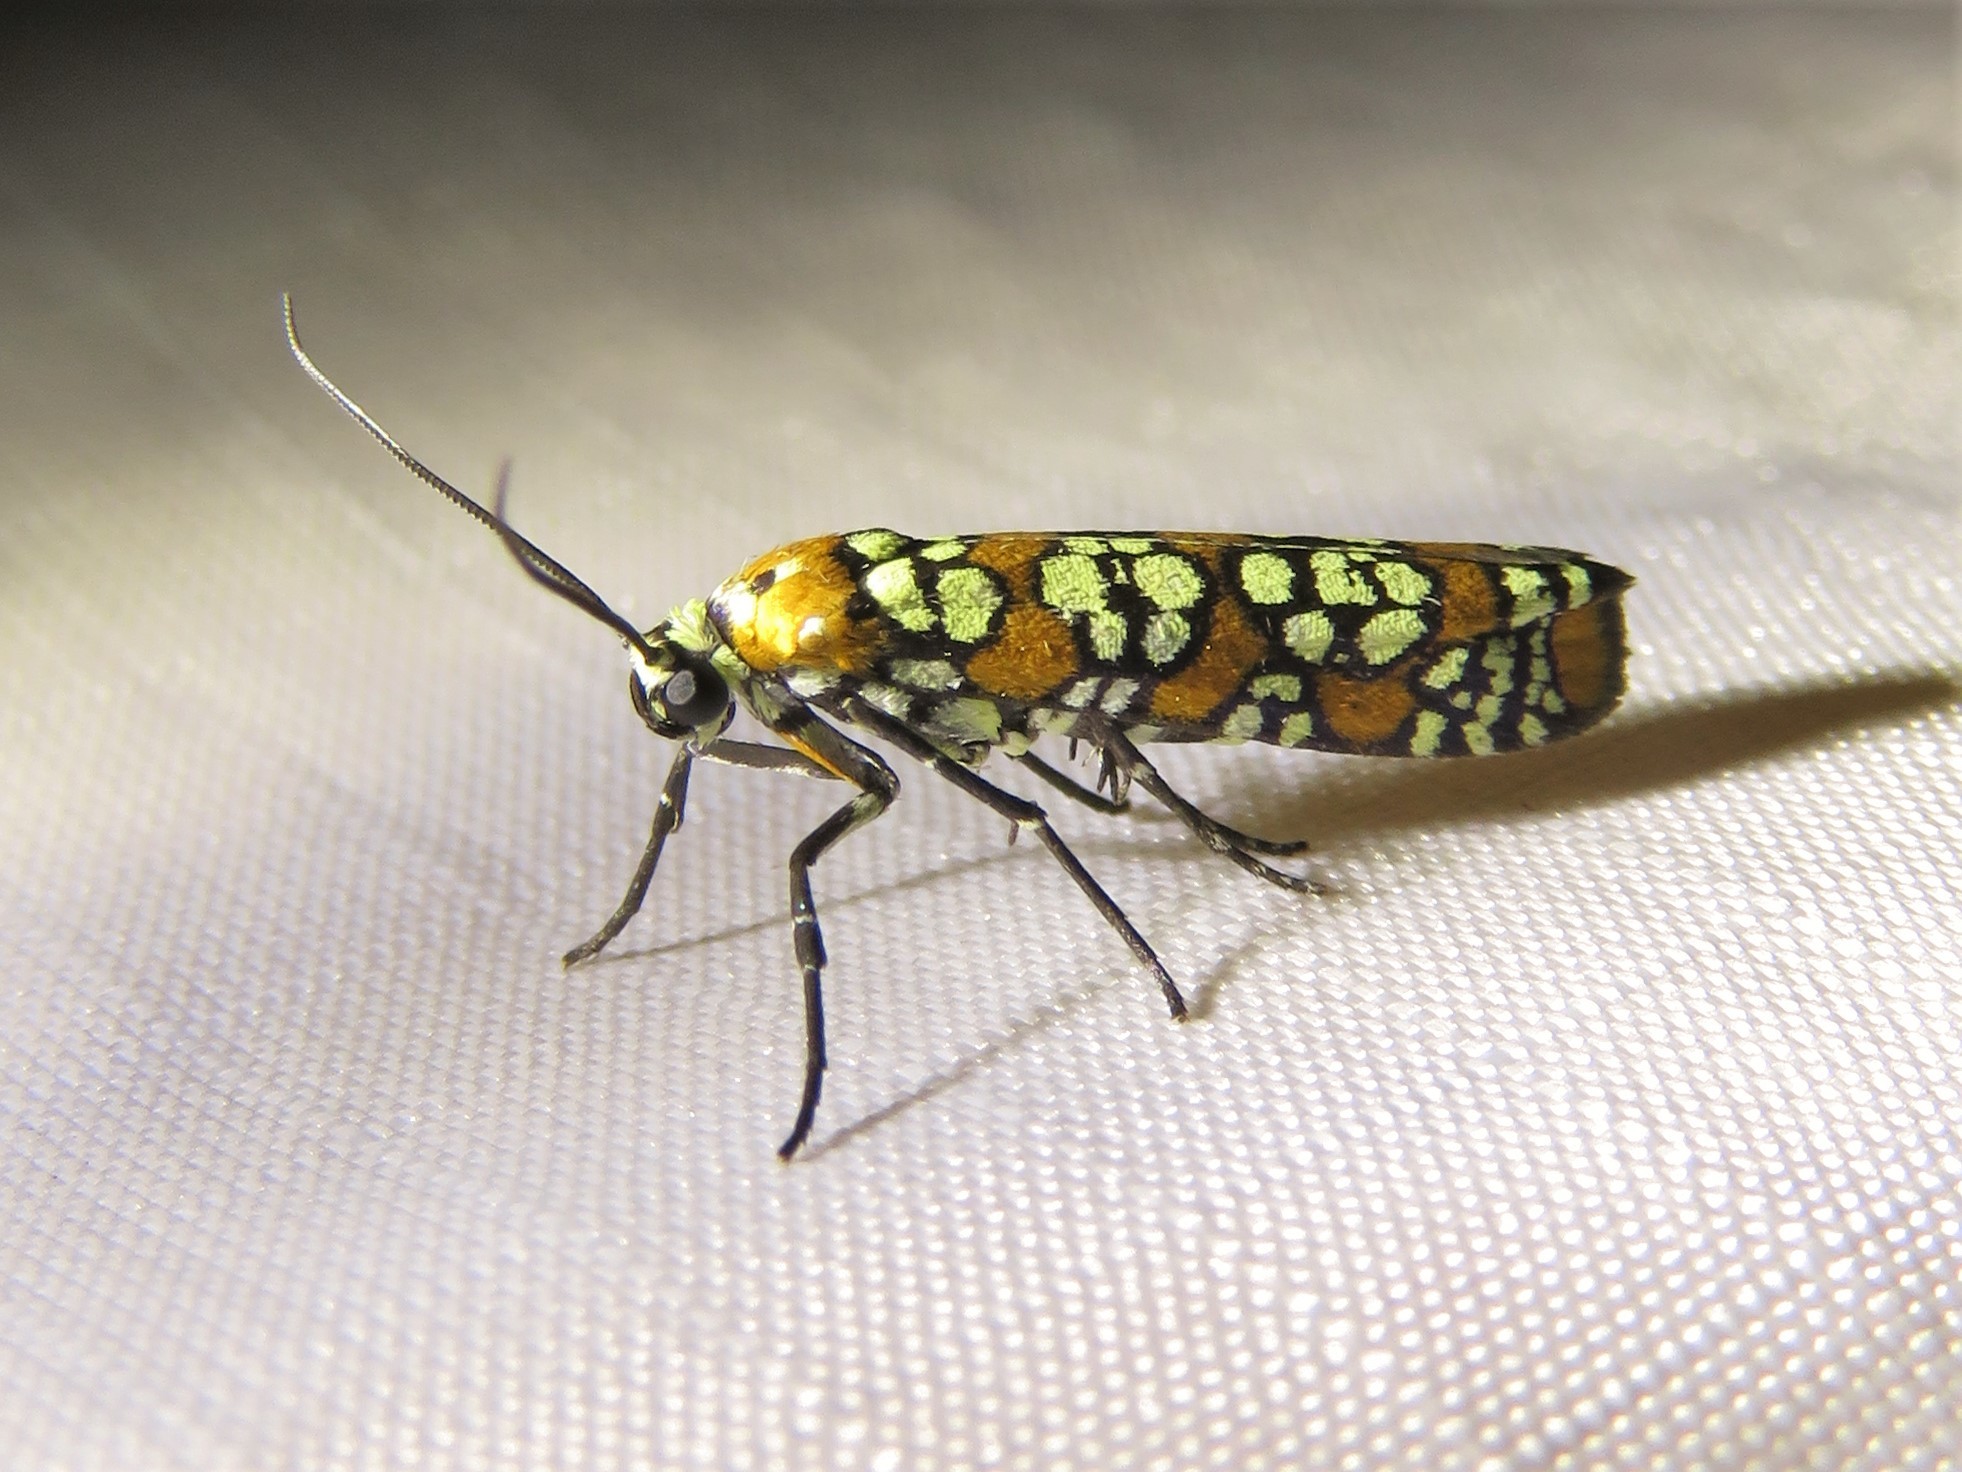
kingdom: Animalia
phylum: Arthropoda
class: Insecta
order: Lepidoptera
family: Attevidae
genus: Atteva
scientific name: Atteva punctella
